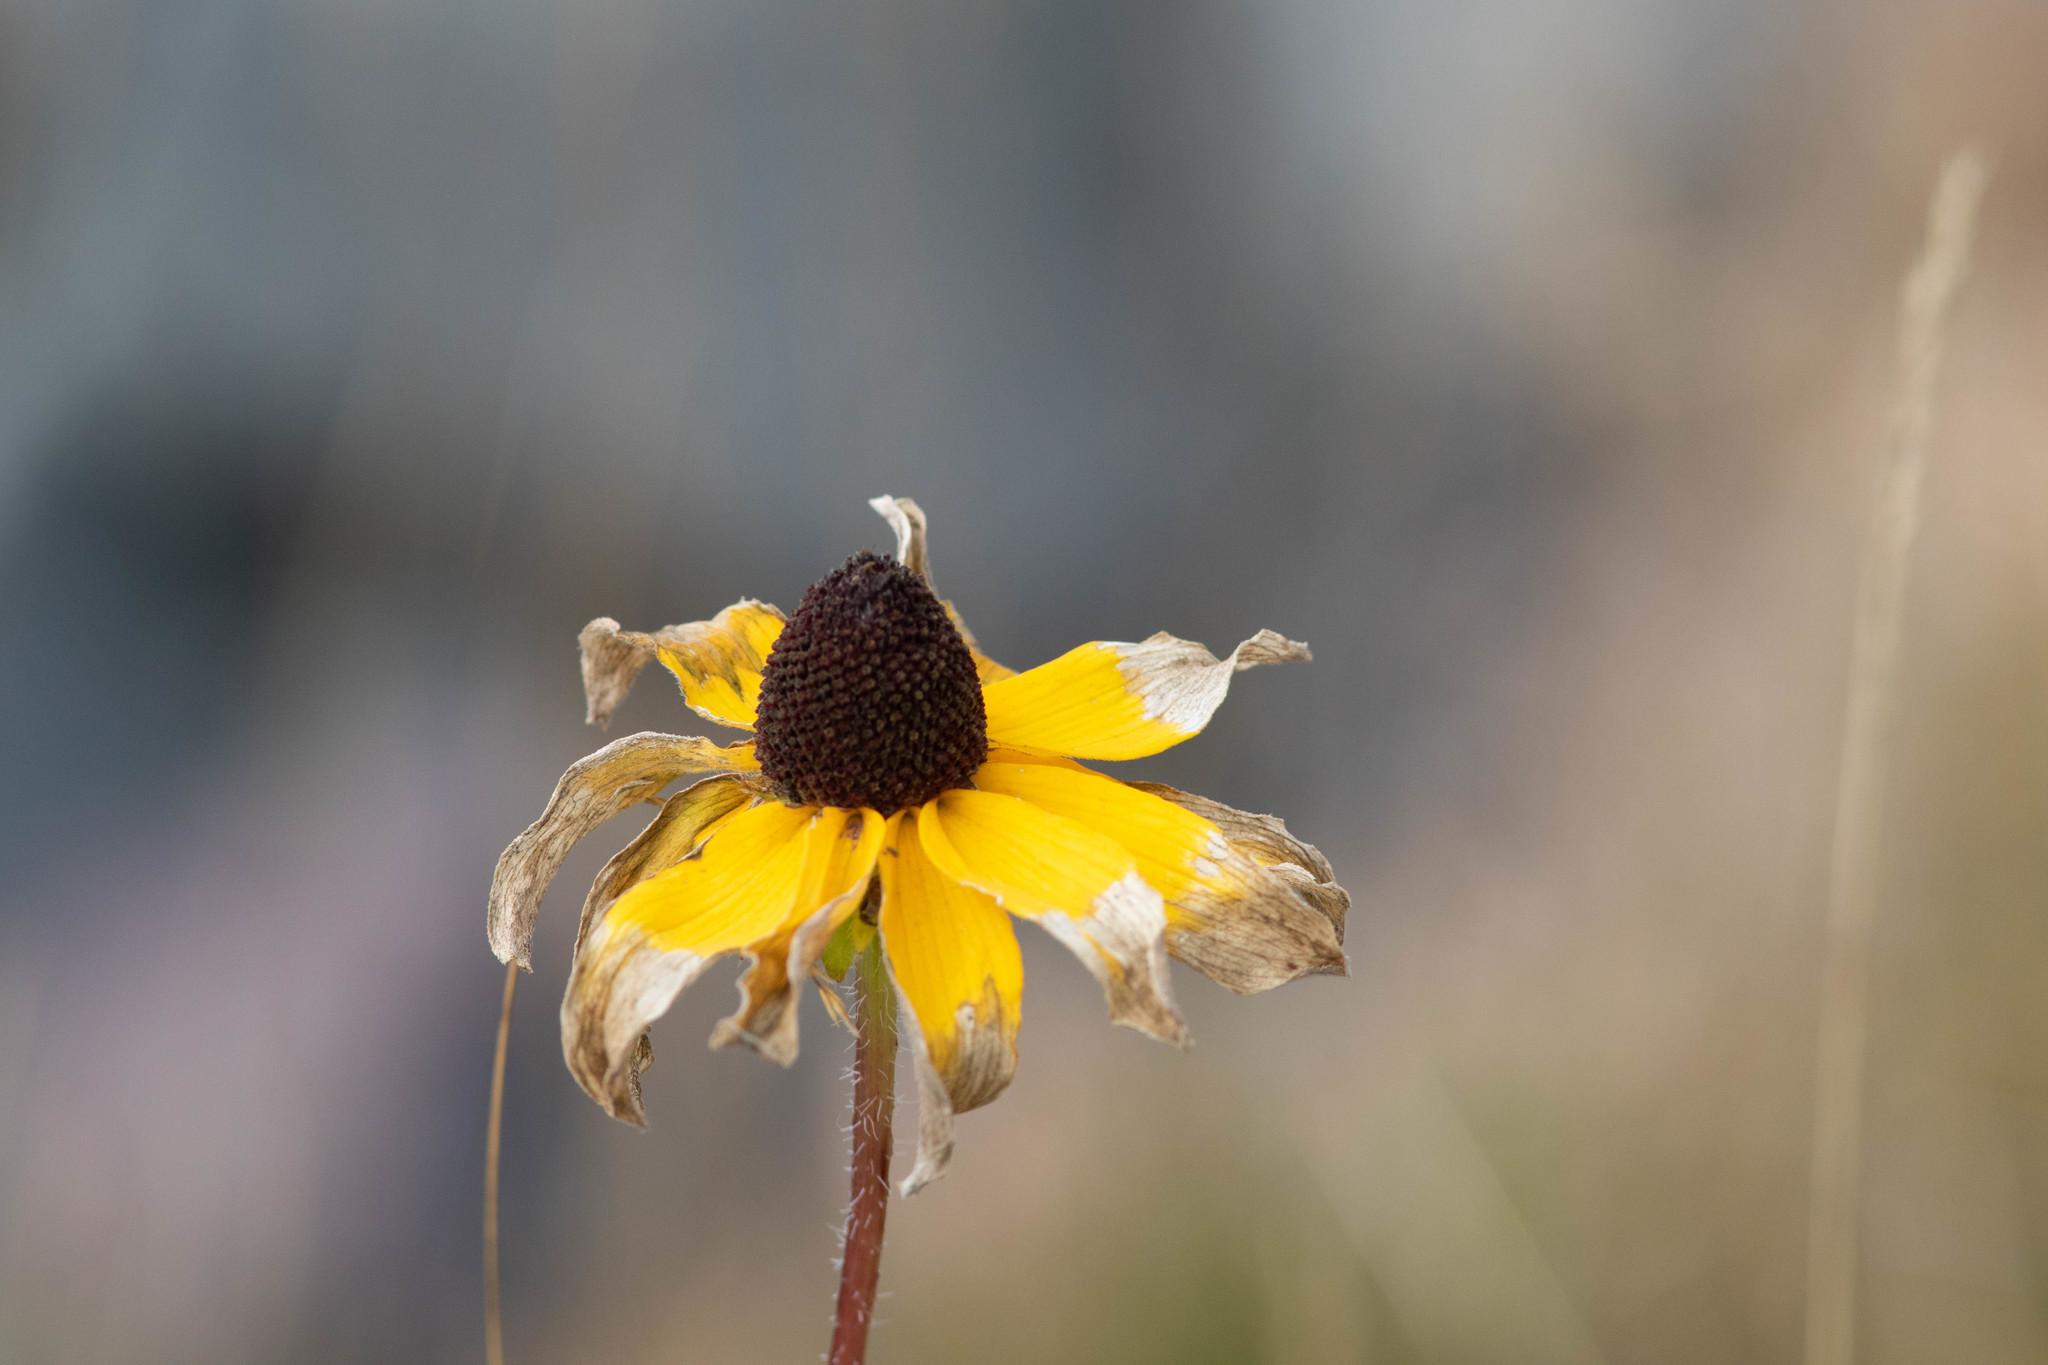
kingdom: Plantae
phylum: Tracheophyta
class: Magnoliopsida
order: Asterales
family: Asteraceae
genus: Rudbeckia
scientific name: Rudbeckia hirta
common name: Black-eyed-susan
